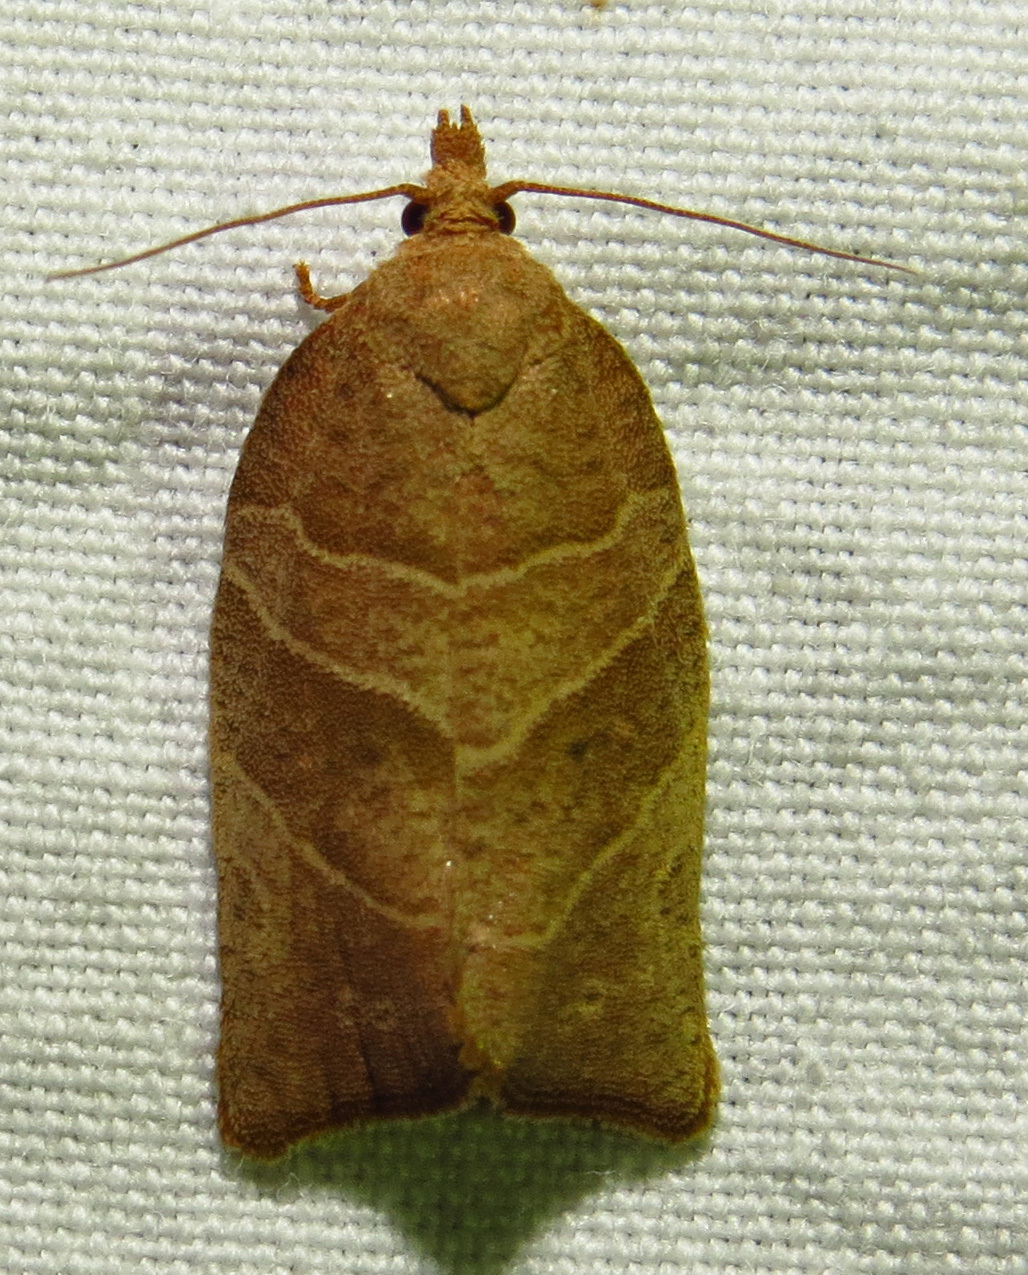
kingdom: Animalia
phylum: Arthropoda
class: Insecta
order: Lepidoptera
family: Tortricidae
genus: Pandemis
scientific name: Pandemis limitata
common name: Three-lined leafroller moth
